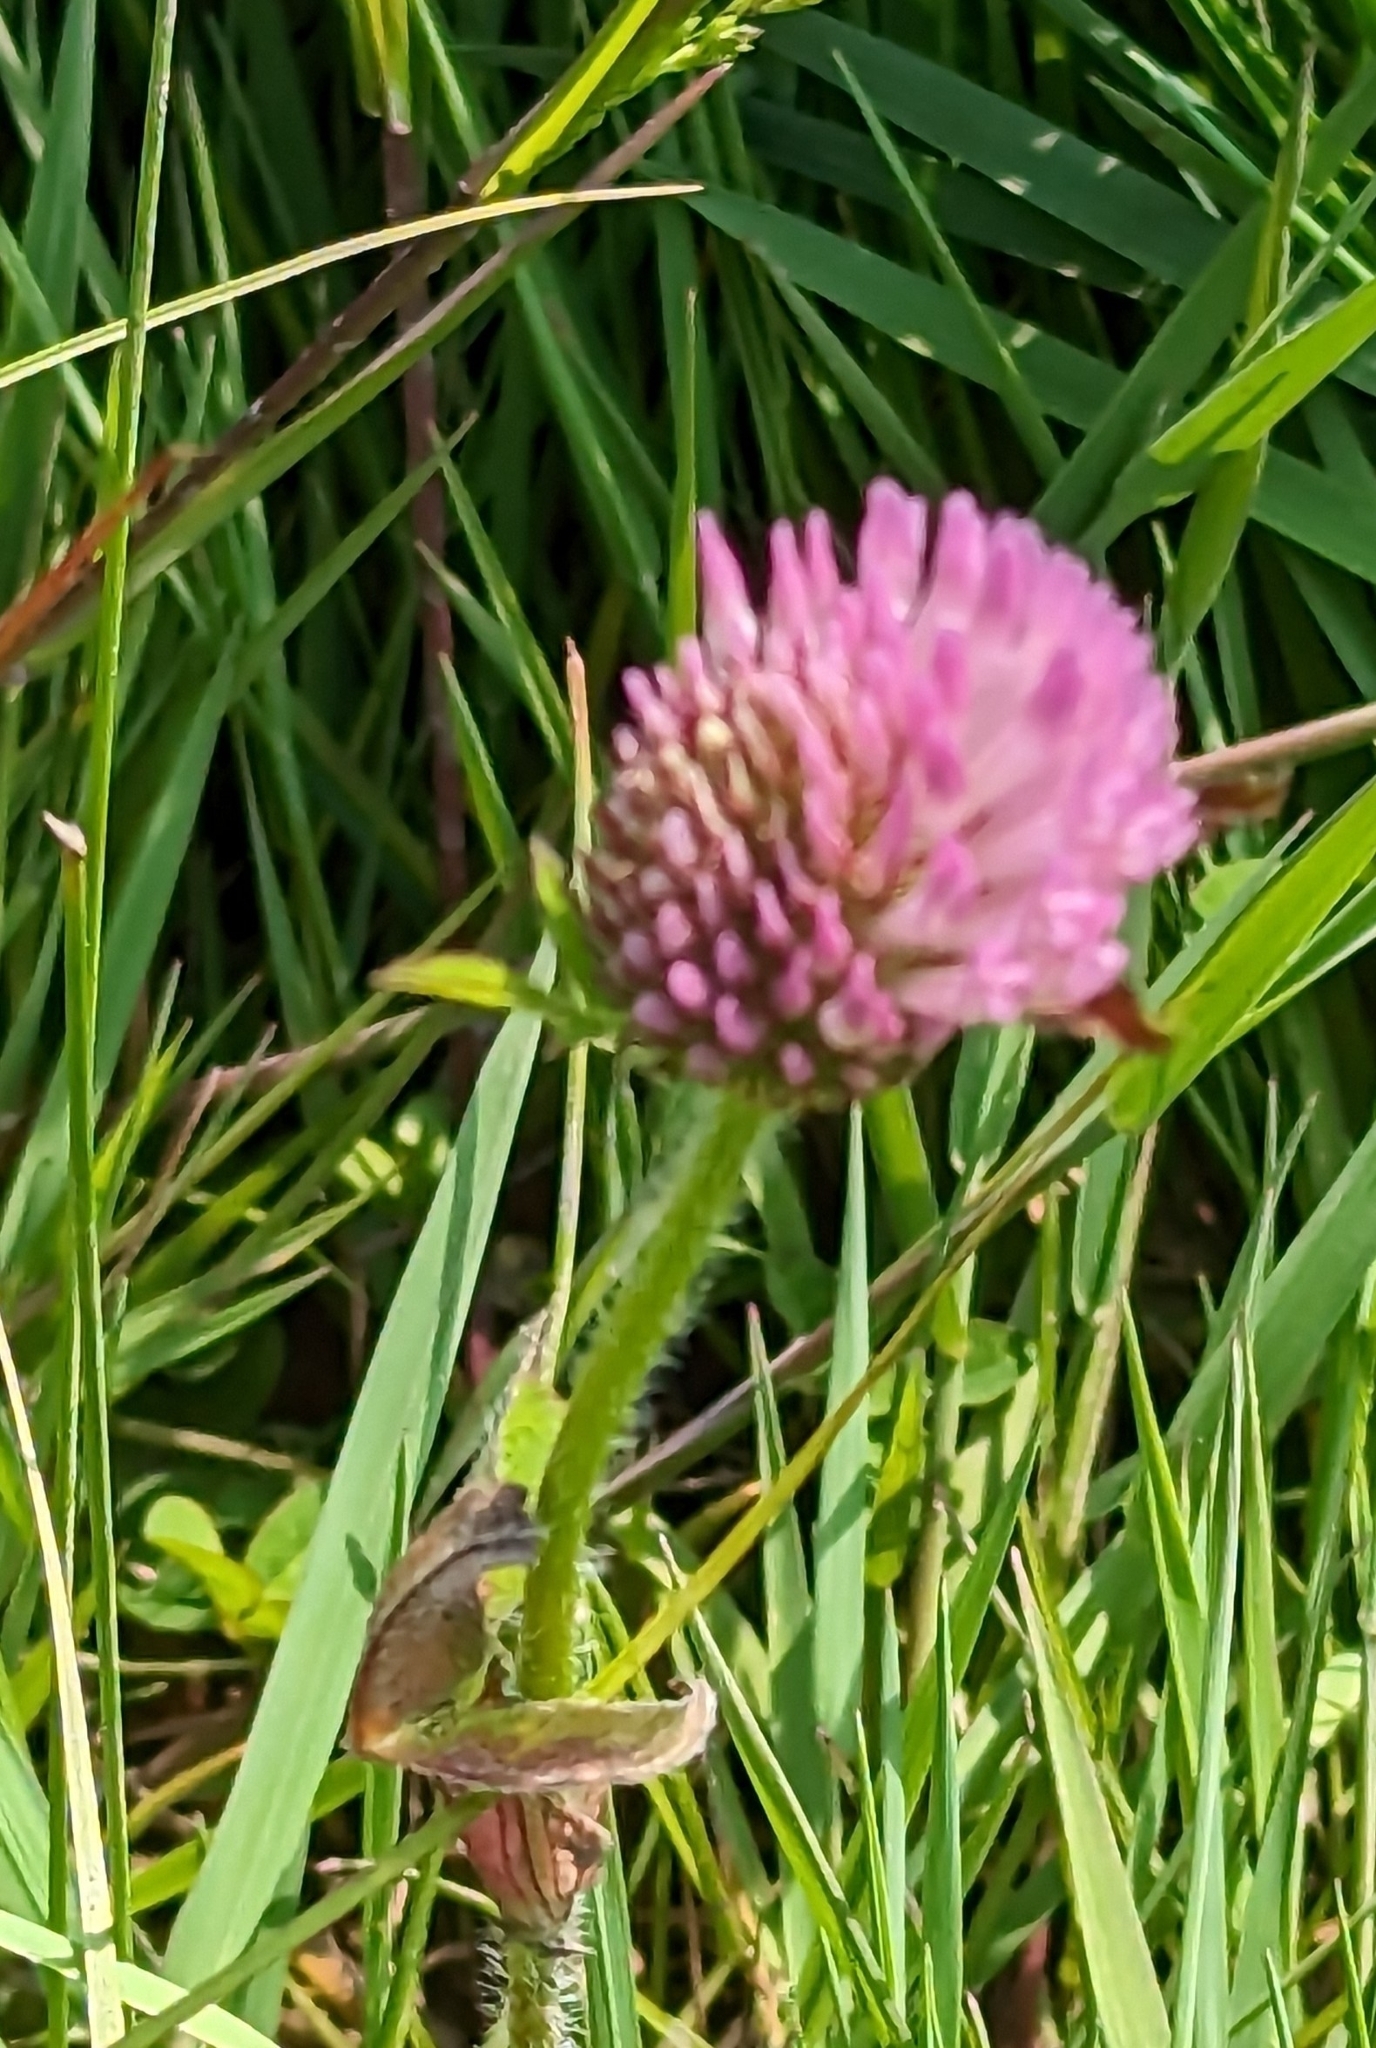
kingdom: Plantae
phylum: Tracheophyta
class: Magnoliopsida
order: Fabales
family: Fabaceae
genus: Trifolium
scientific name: Trifolium pratense
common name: Red clover
